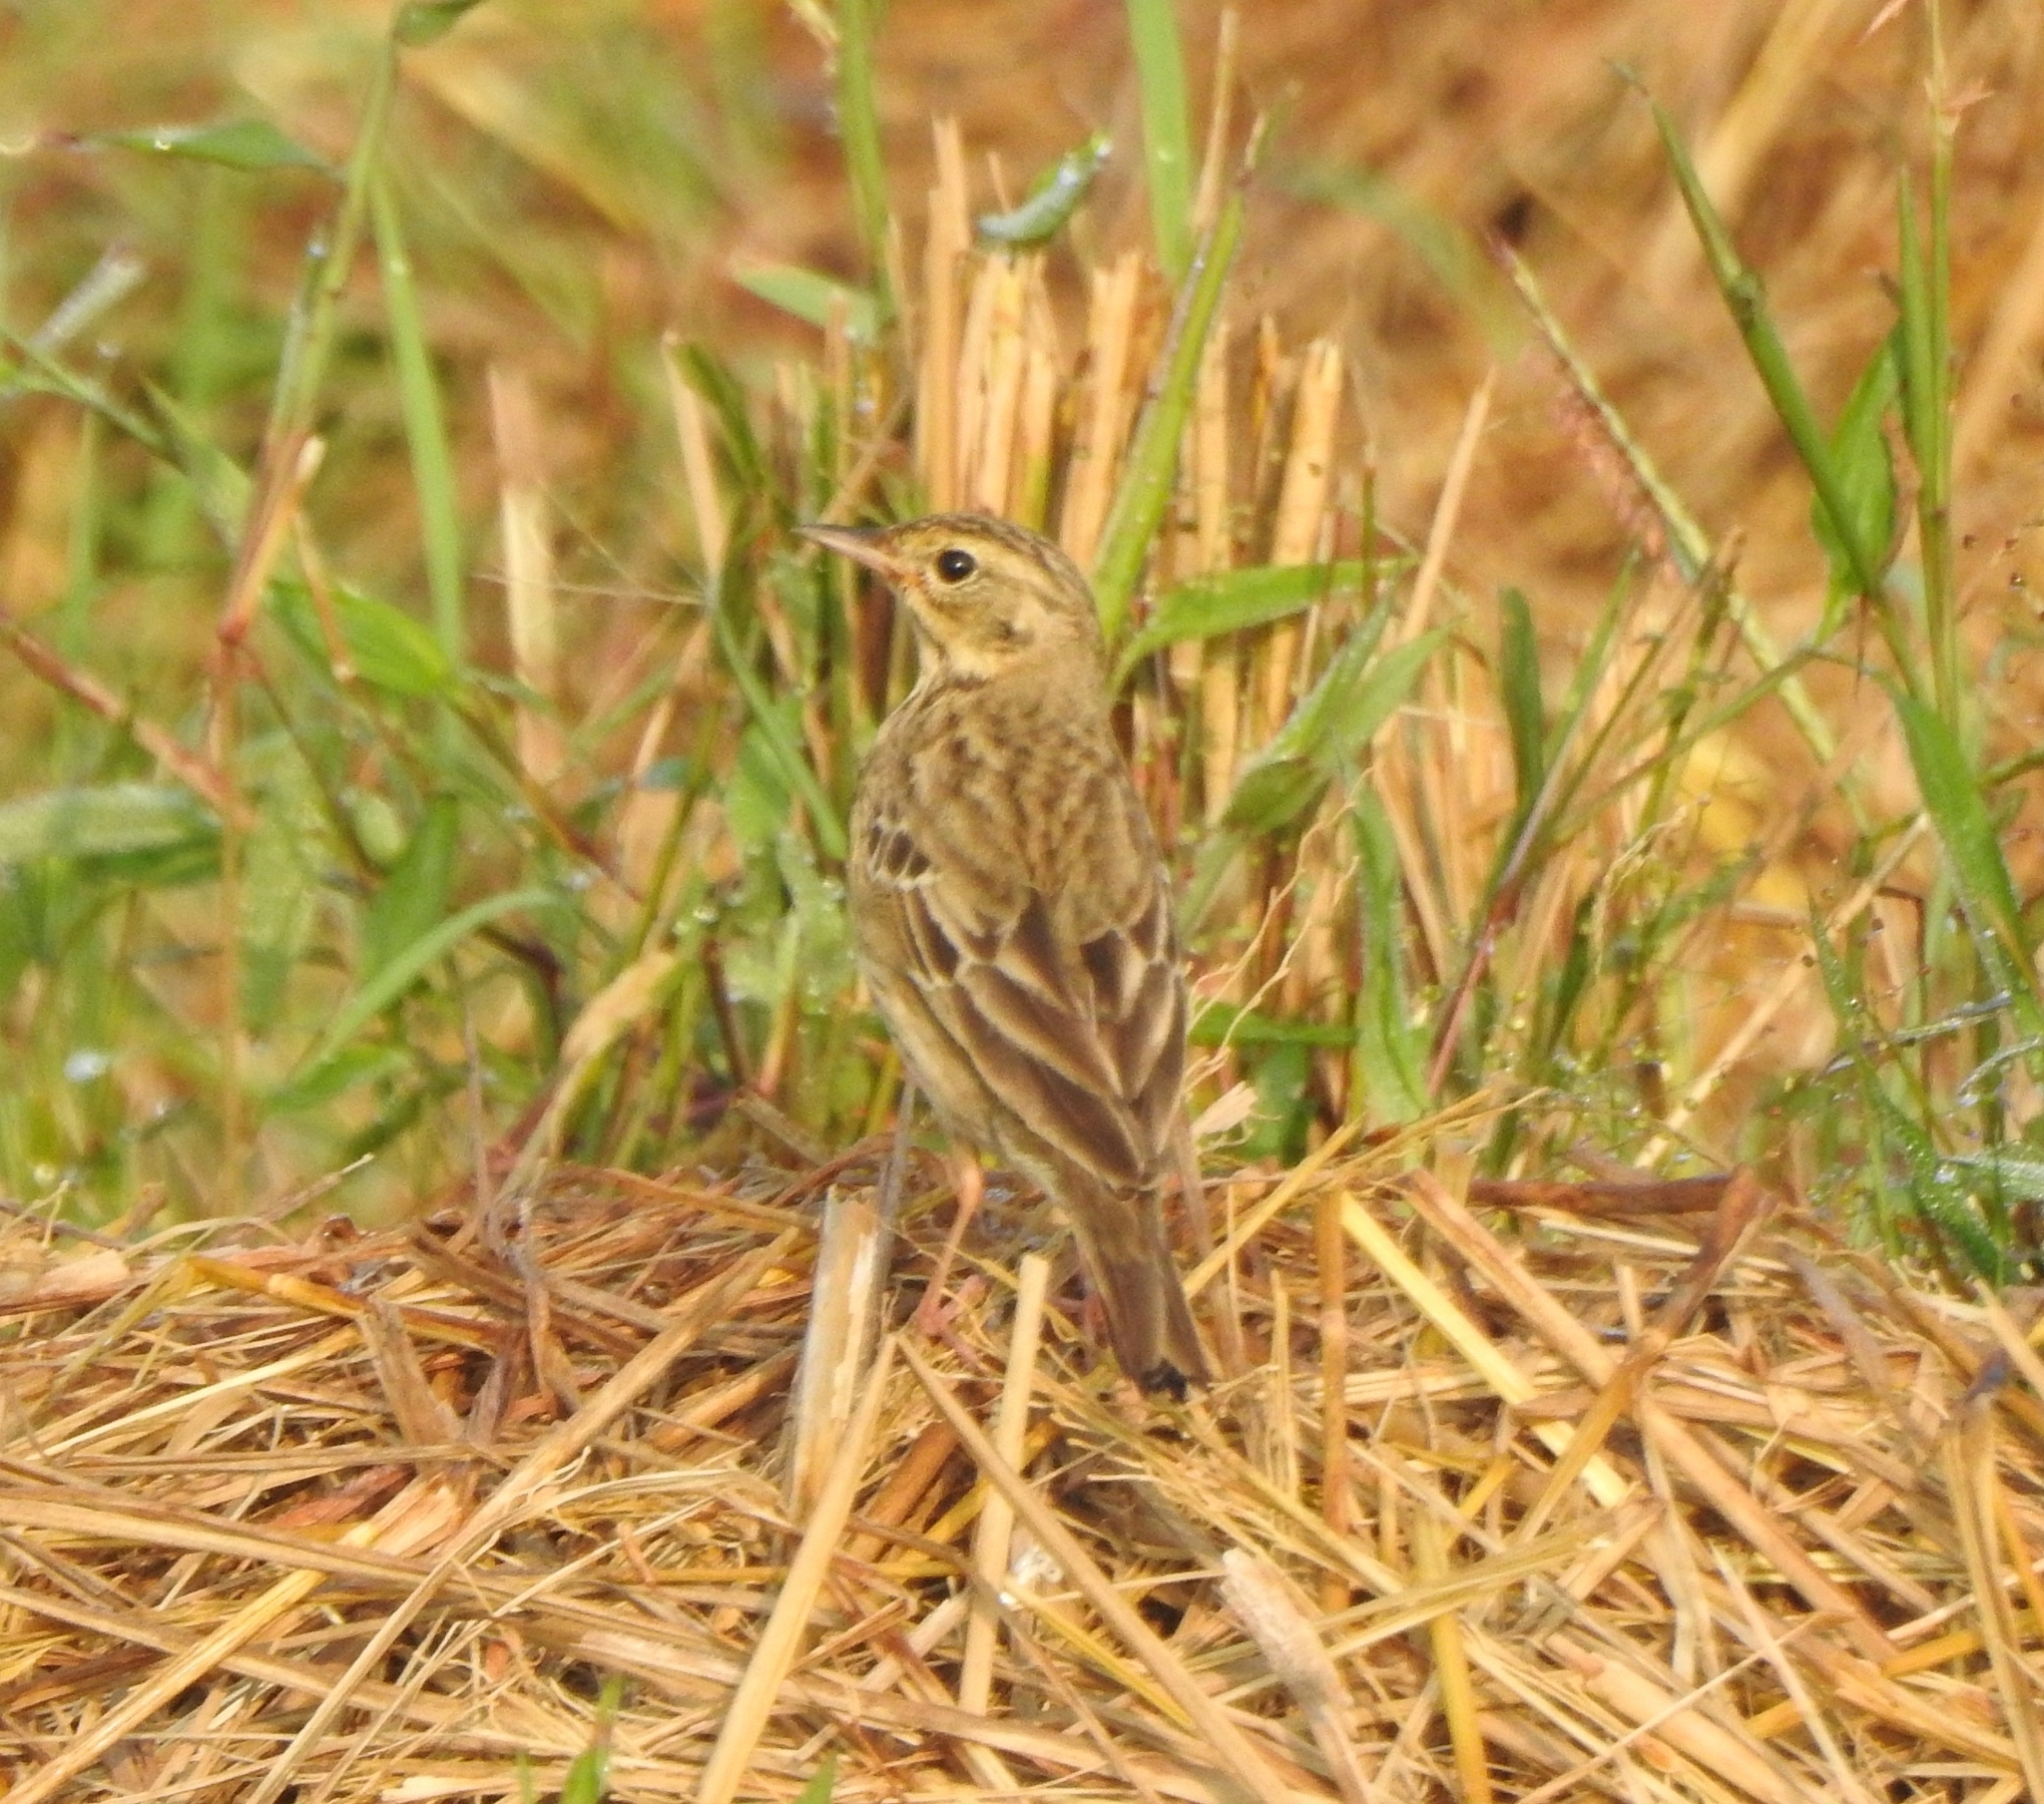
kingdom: Animalia
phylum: Chordata
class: Aves
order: Passeriformes
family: Motacillidae
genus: Anthus
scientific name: Anthus trivialis
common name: Tree pipit
